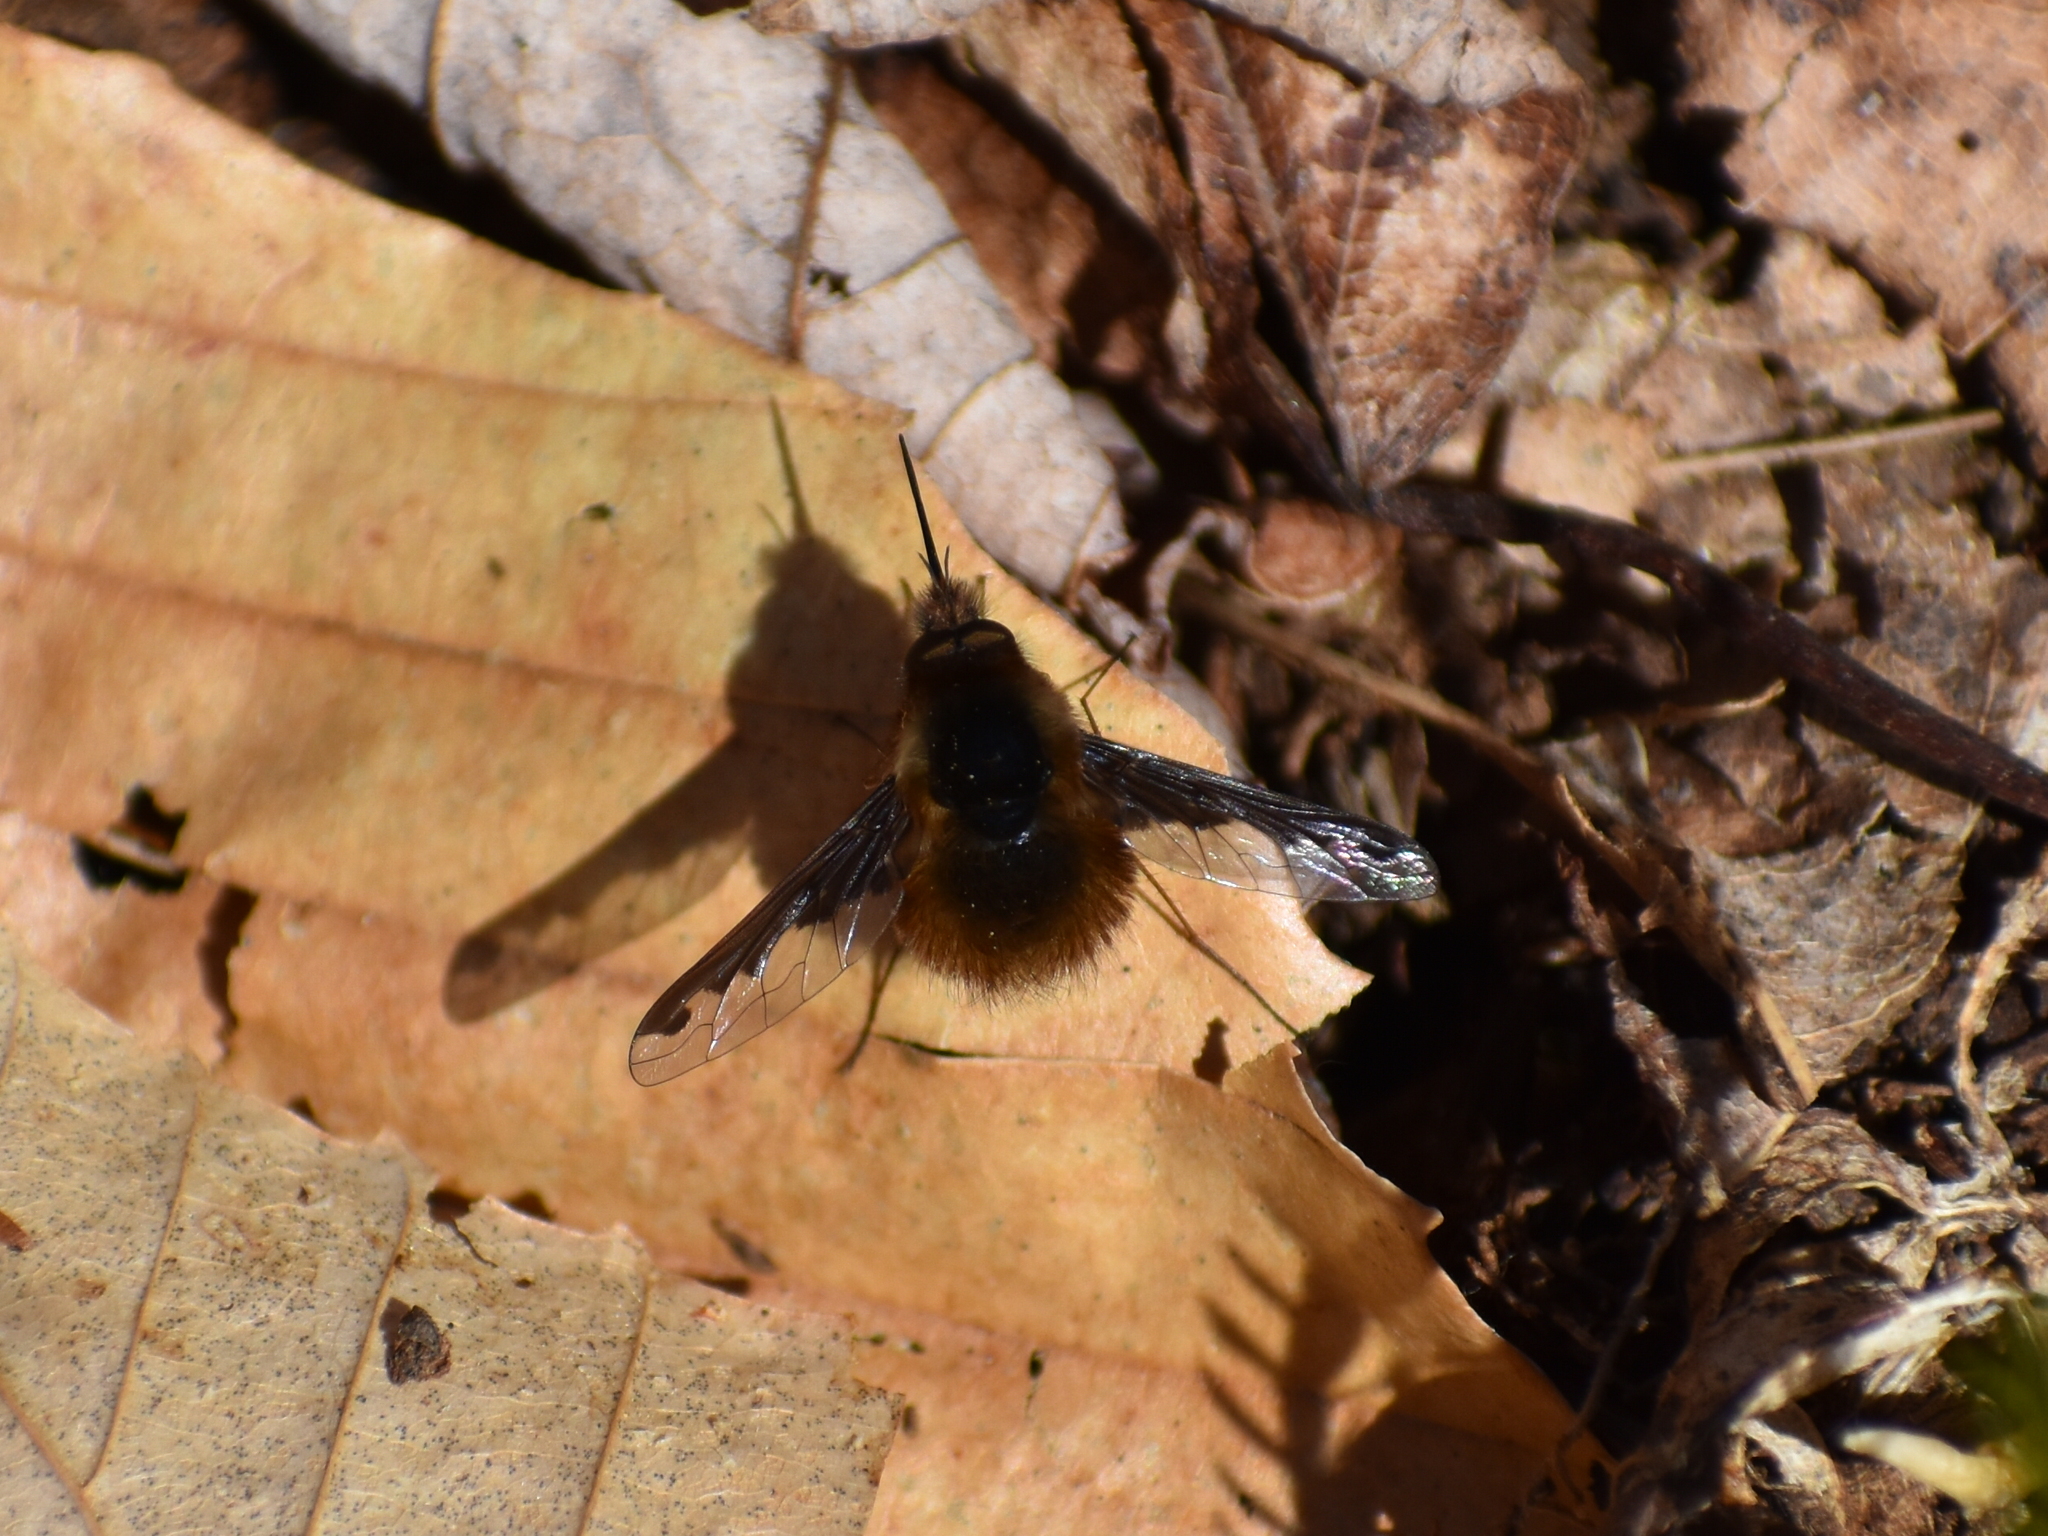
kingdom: Animalia
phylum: Arthropoda
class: Insecta
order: Diptera
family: Bombyliidae
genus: Bombylius
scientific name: Bombylius major
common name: Bee fly
